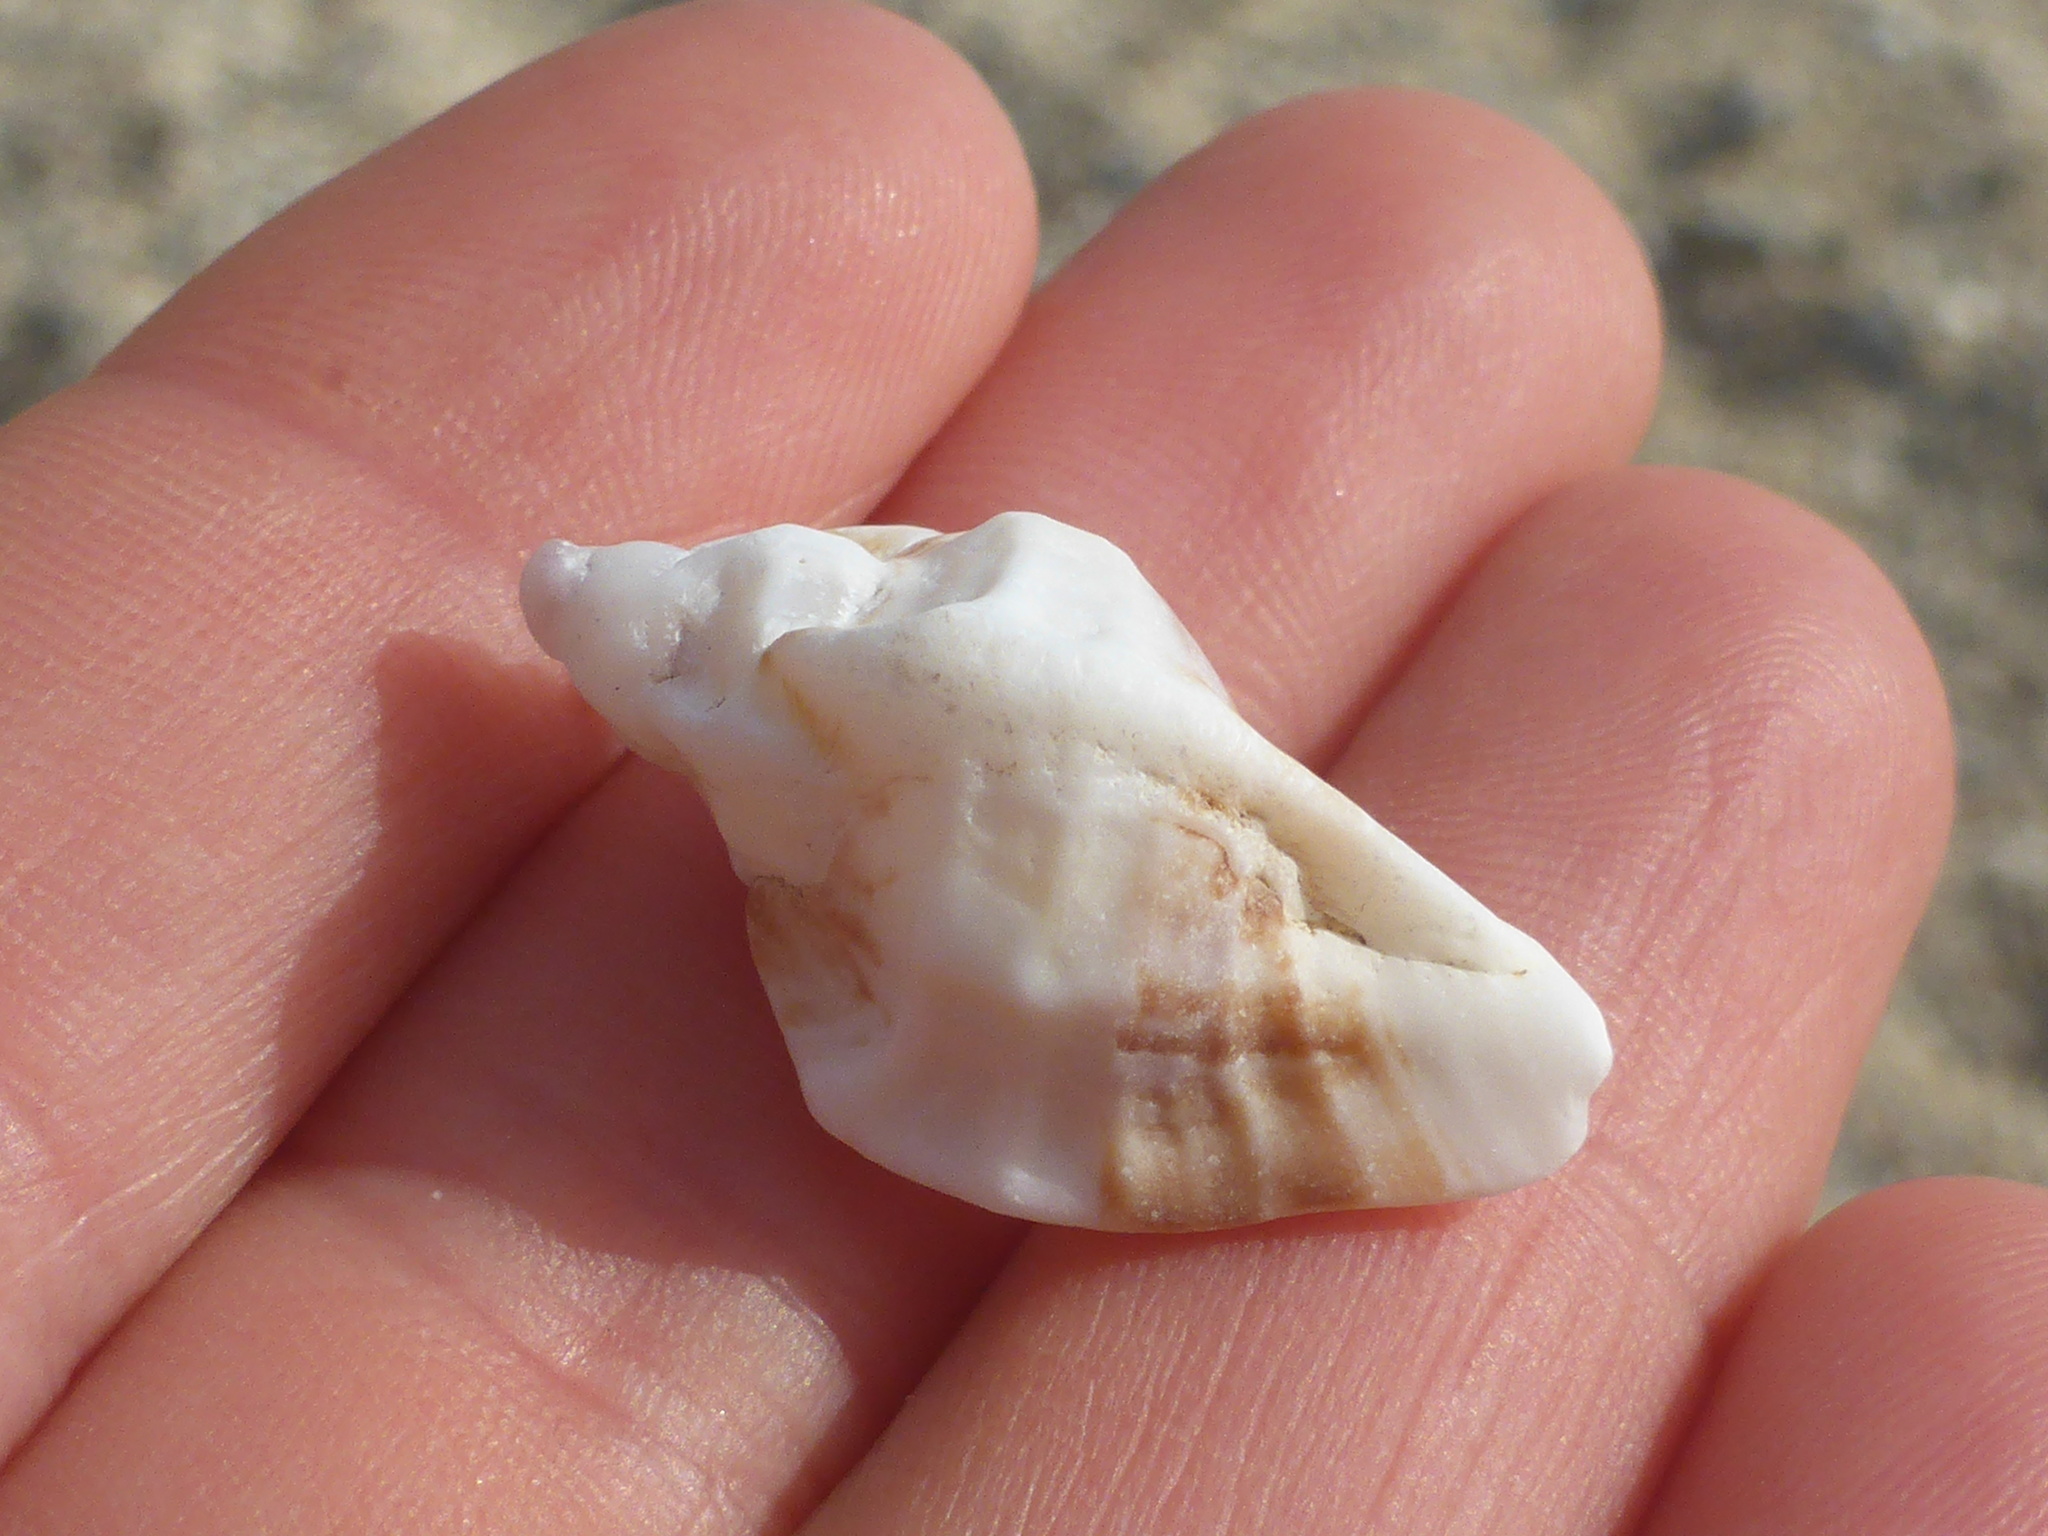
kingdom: Animalia
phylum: Mollusca
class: Gastropoda
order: Neogastropoda
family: Muricidae
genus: Ceratostoma
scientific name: Ceratostoma foliatum
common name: Foliate thorn purpura
